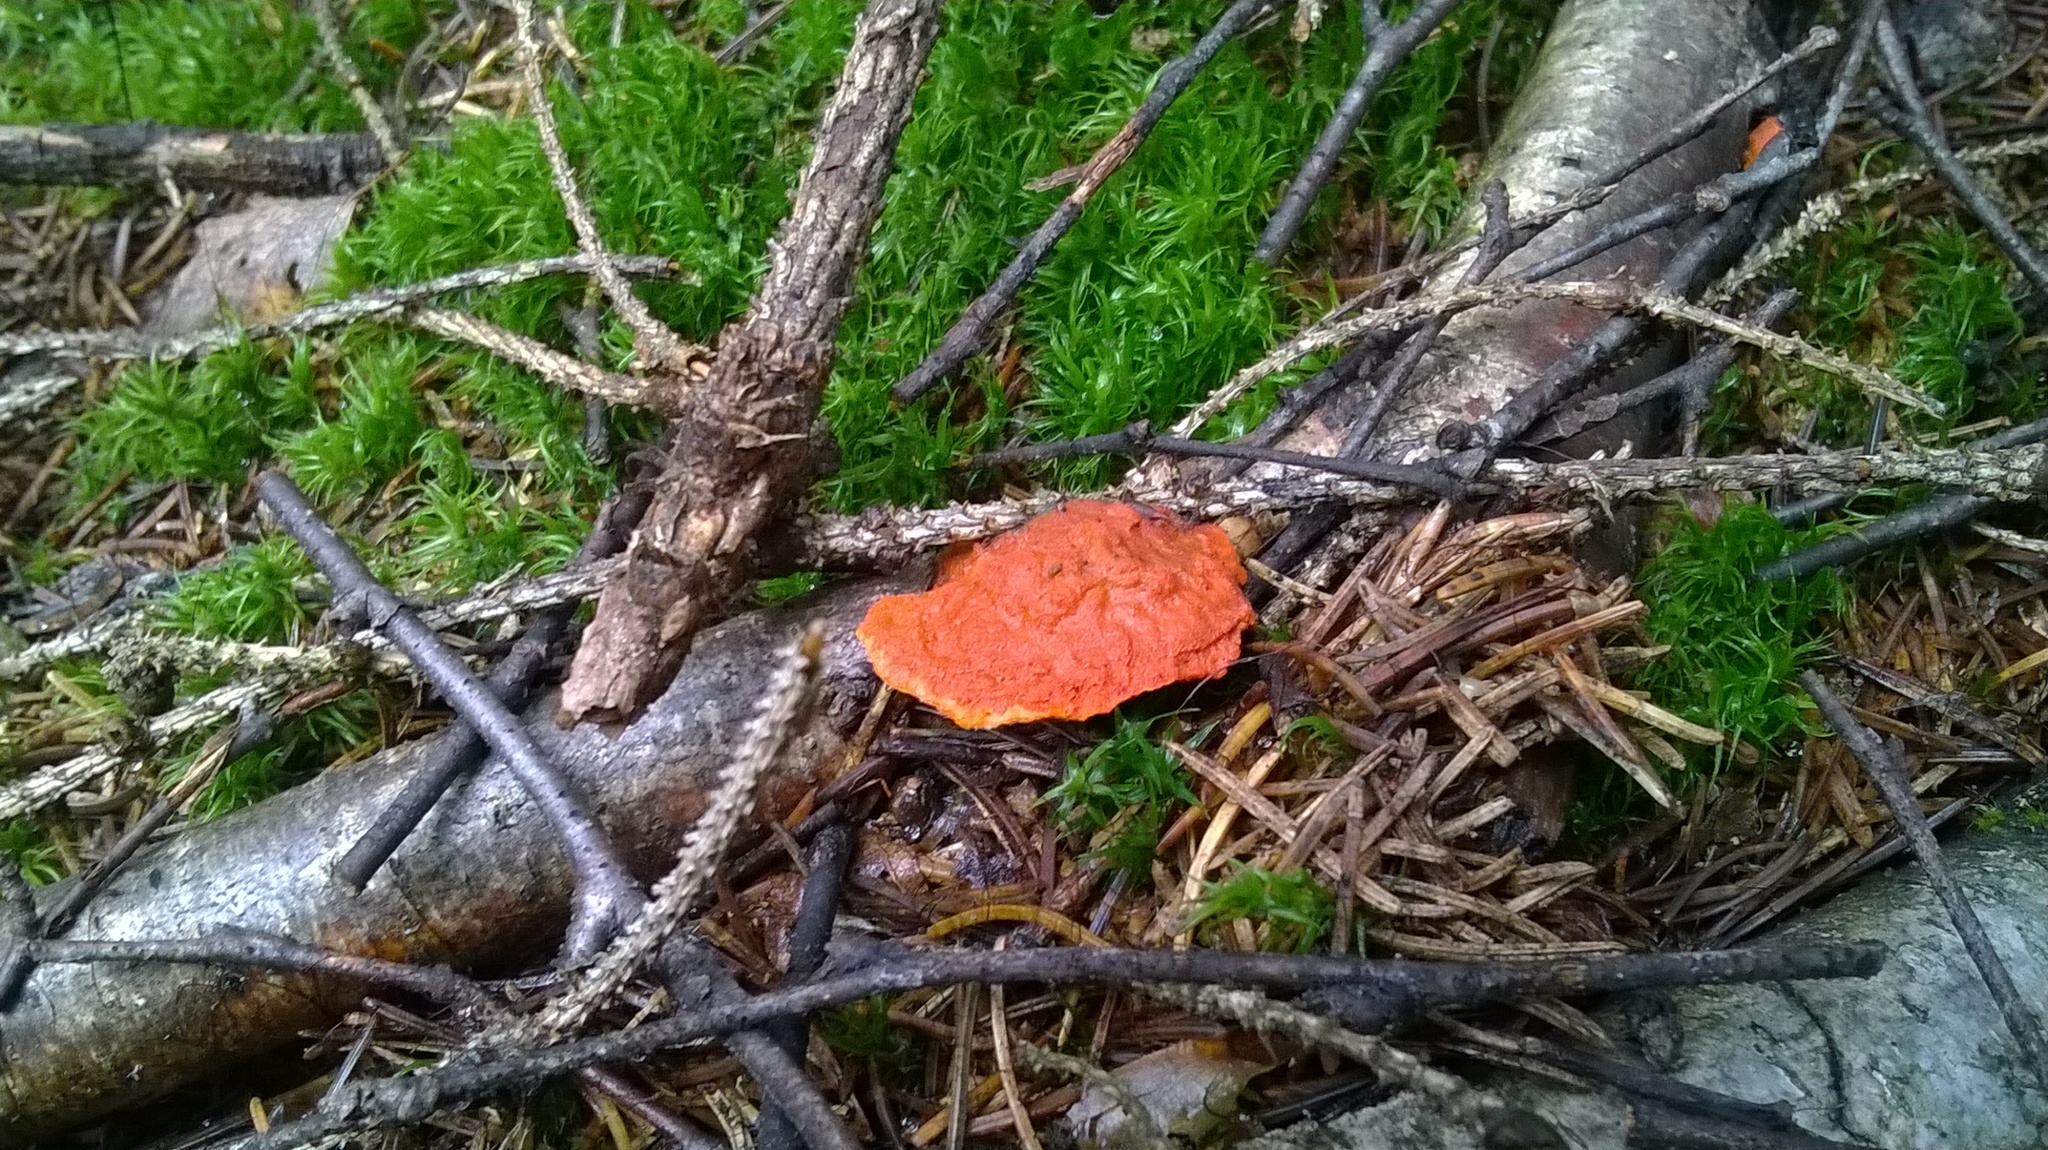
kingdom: Fungi
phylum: Basidiomycota
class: Agaricomycetes
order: Polyporales
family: Polyporaceae
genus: Trametes
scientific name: Trametes cinnabarina
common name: Northern cinnabar polypore
